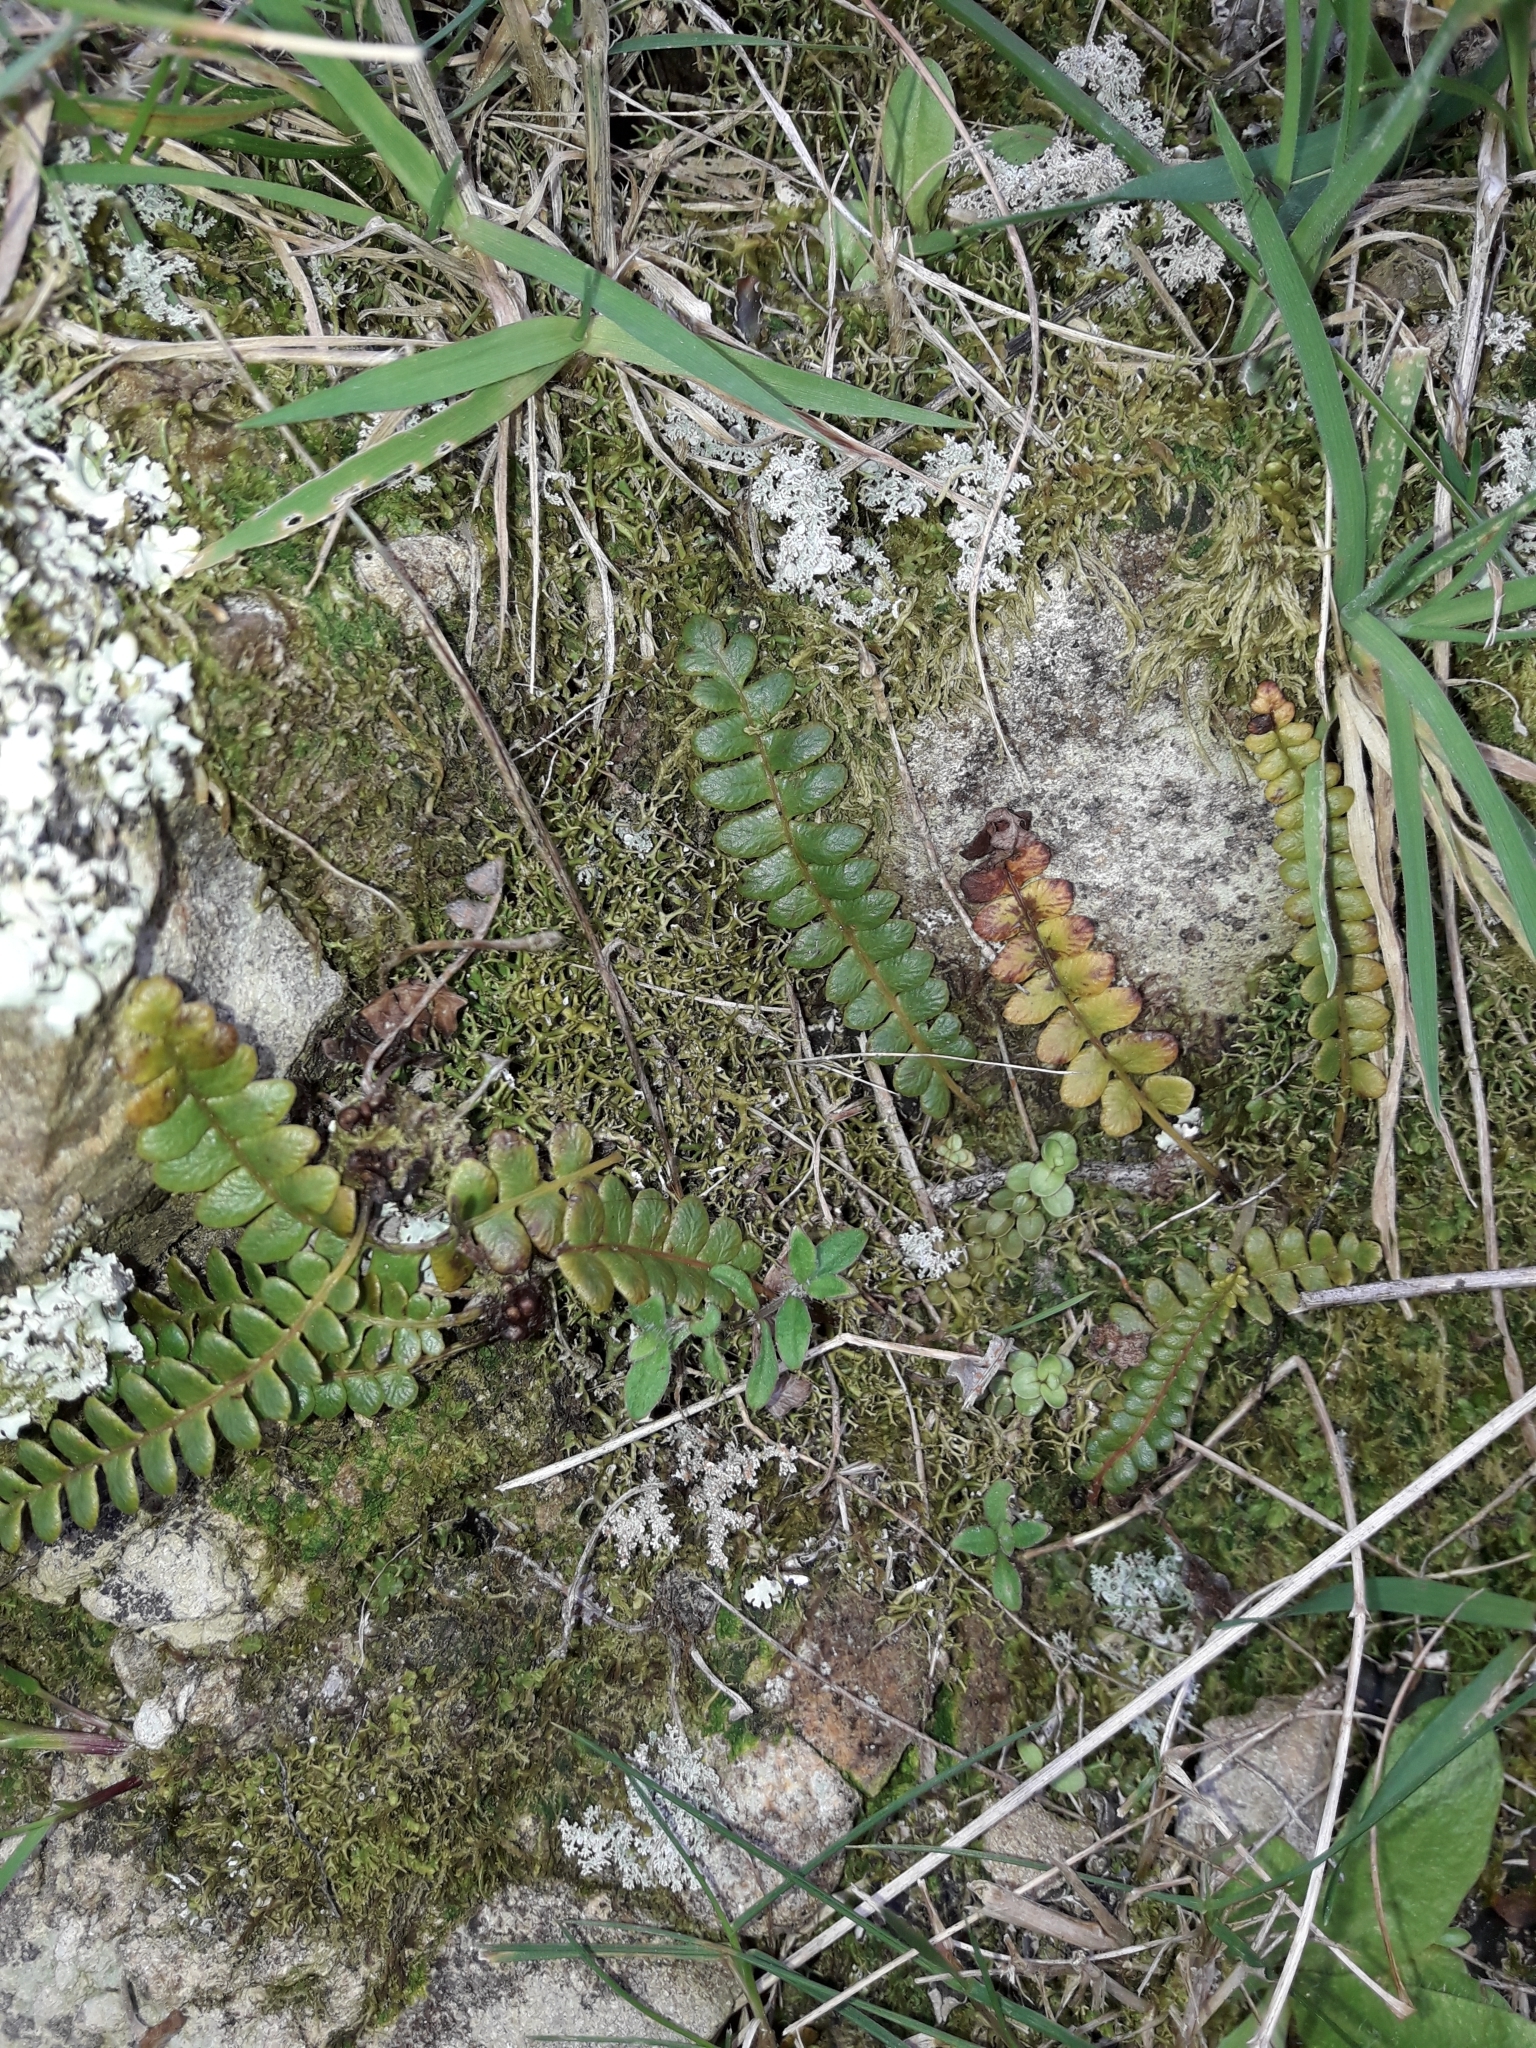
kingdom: Plantae
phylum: Tracheophyta
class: Polypodiopsida
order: Polypodiales
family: Blechnaceae
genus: Austroblechnum
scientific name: Austroblechnum penna-marina
